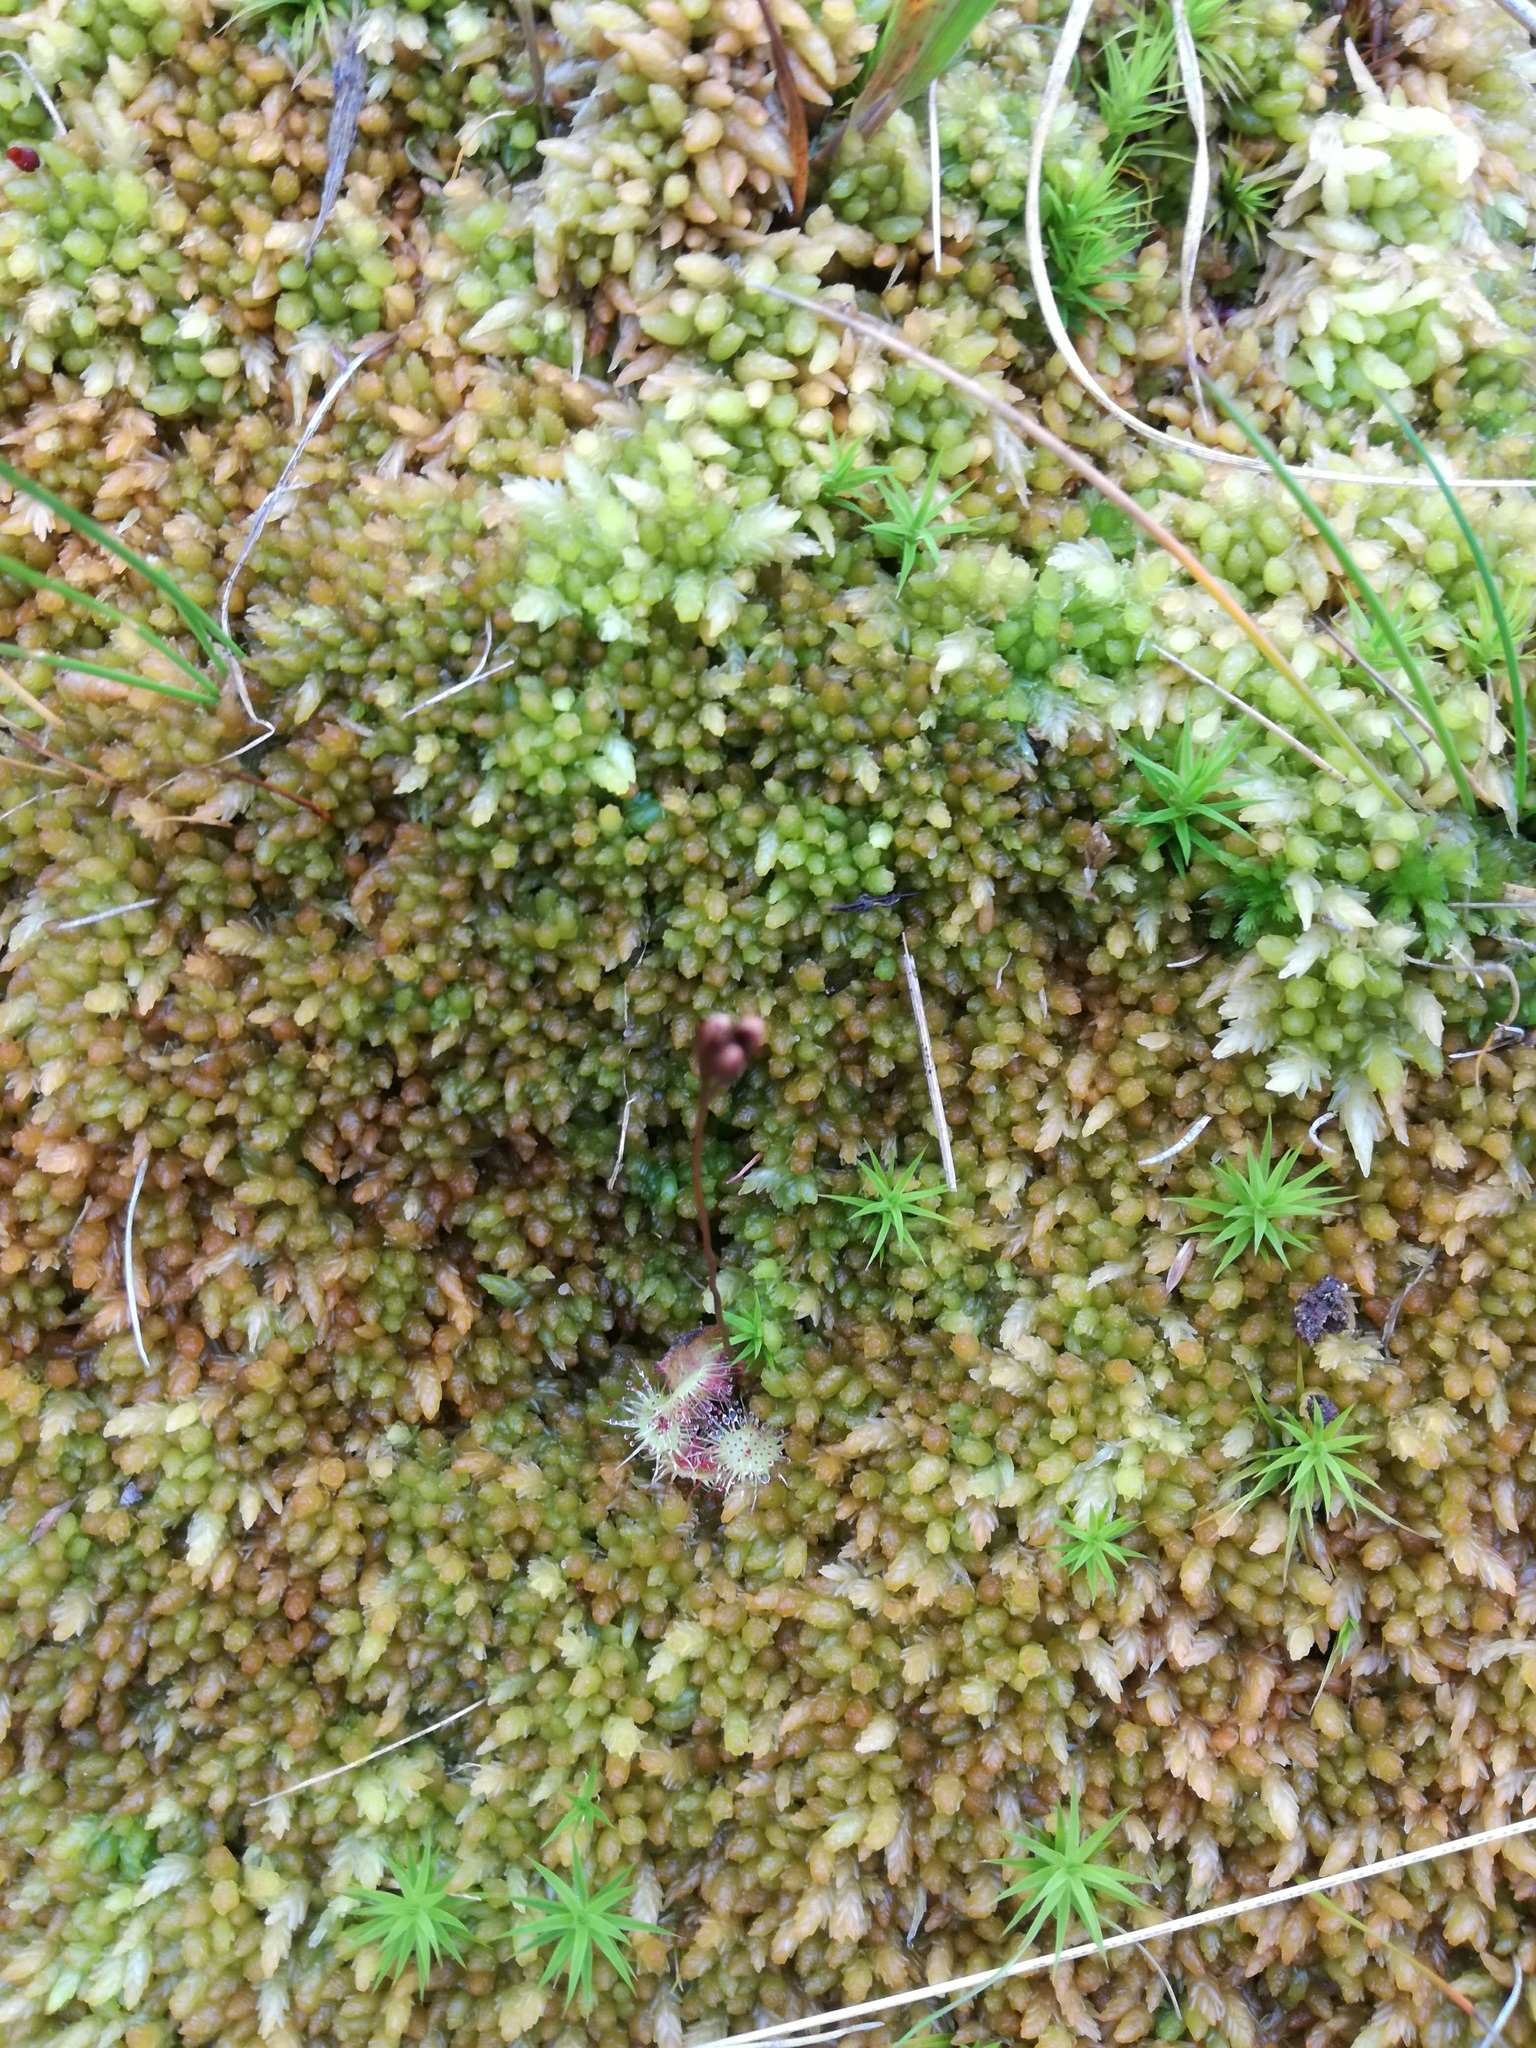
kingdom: Plantae
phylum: Tracheophyta
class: Magnoliopsida
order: Caryophyllales
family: Droseraceae
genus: Drosera
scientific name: Drosera rotundifolia
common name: Round-leaved sundew
